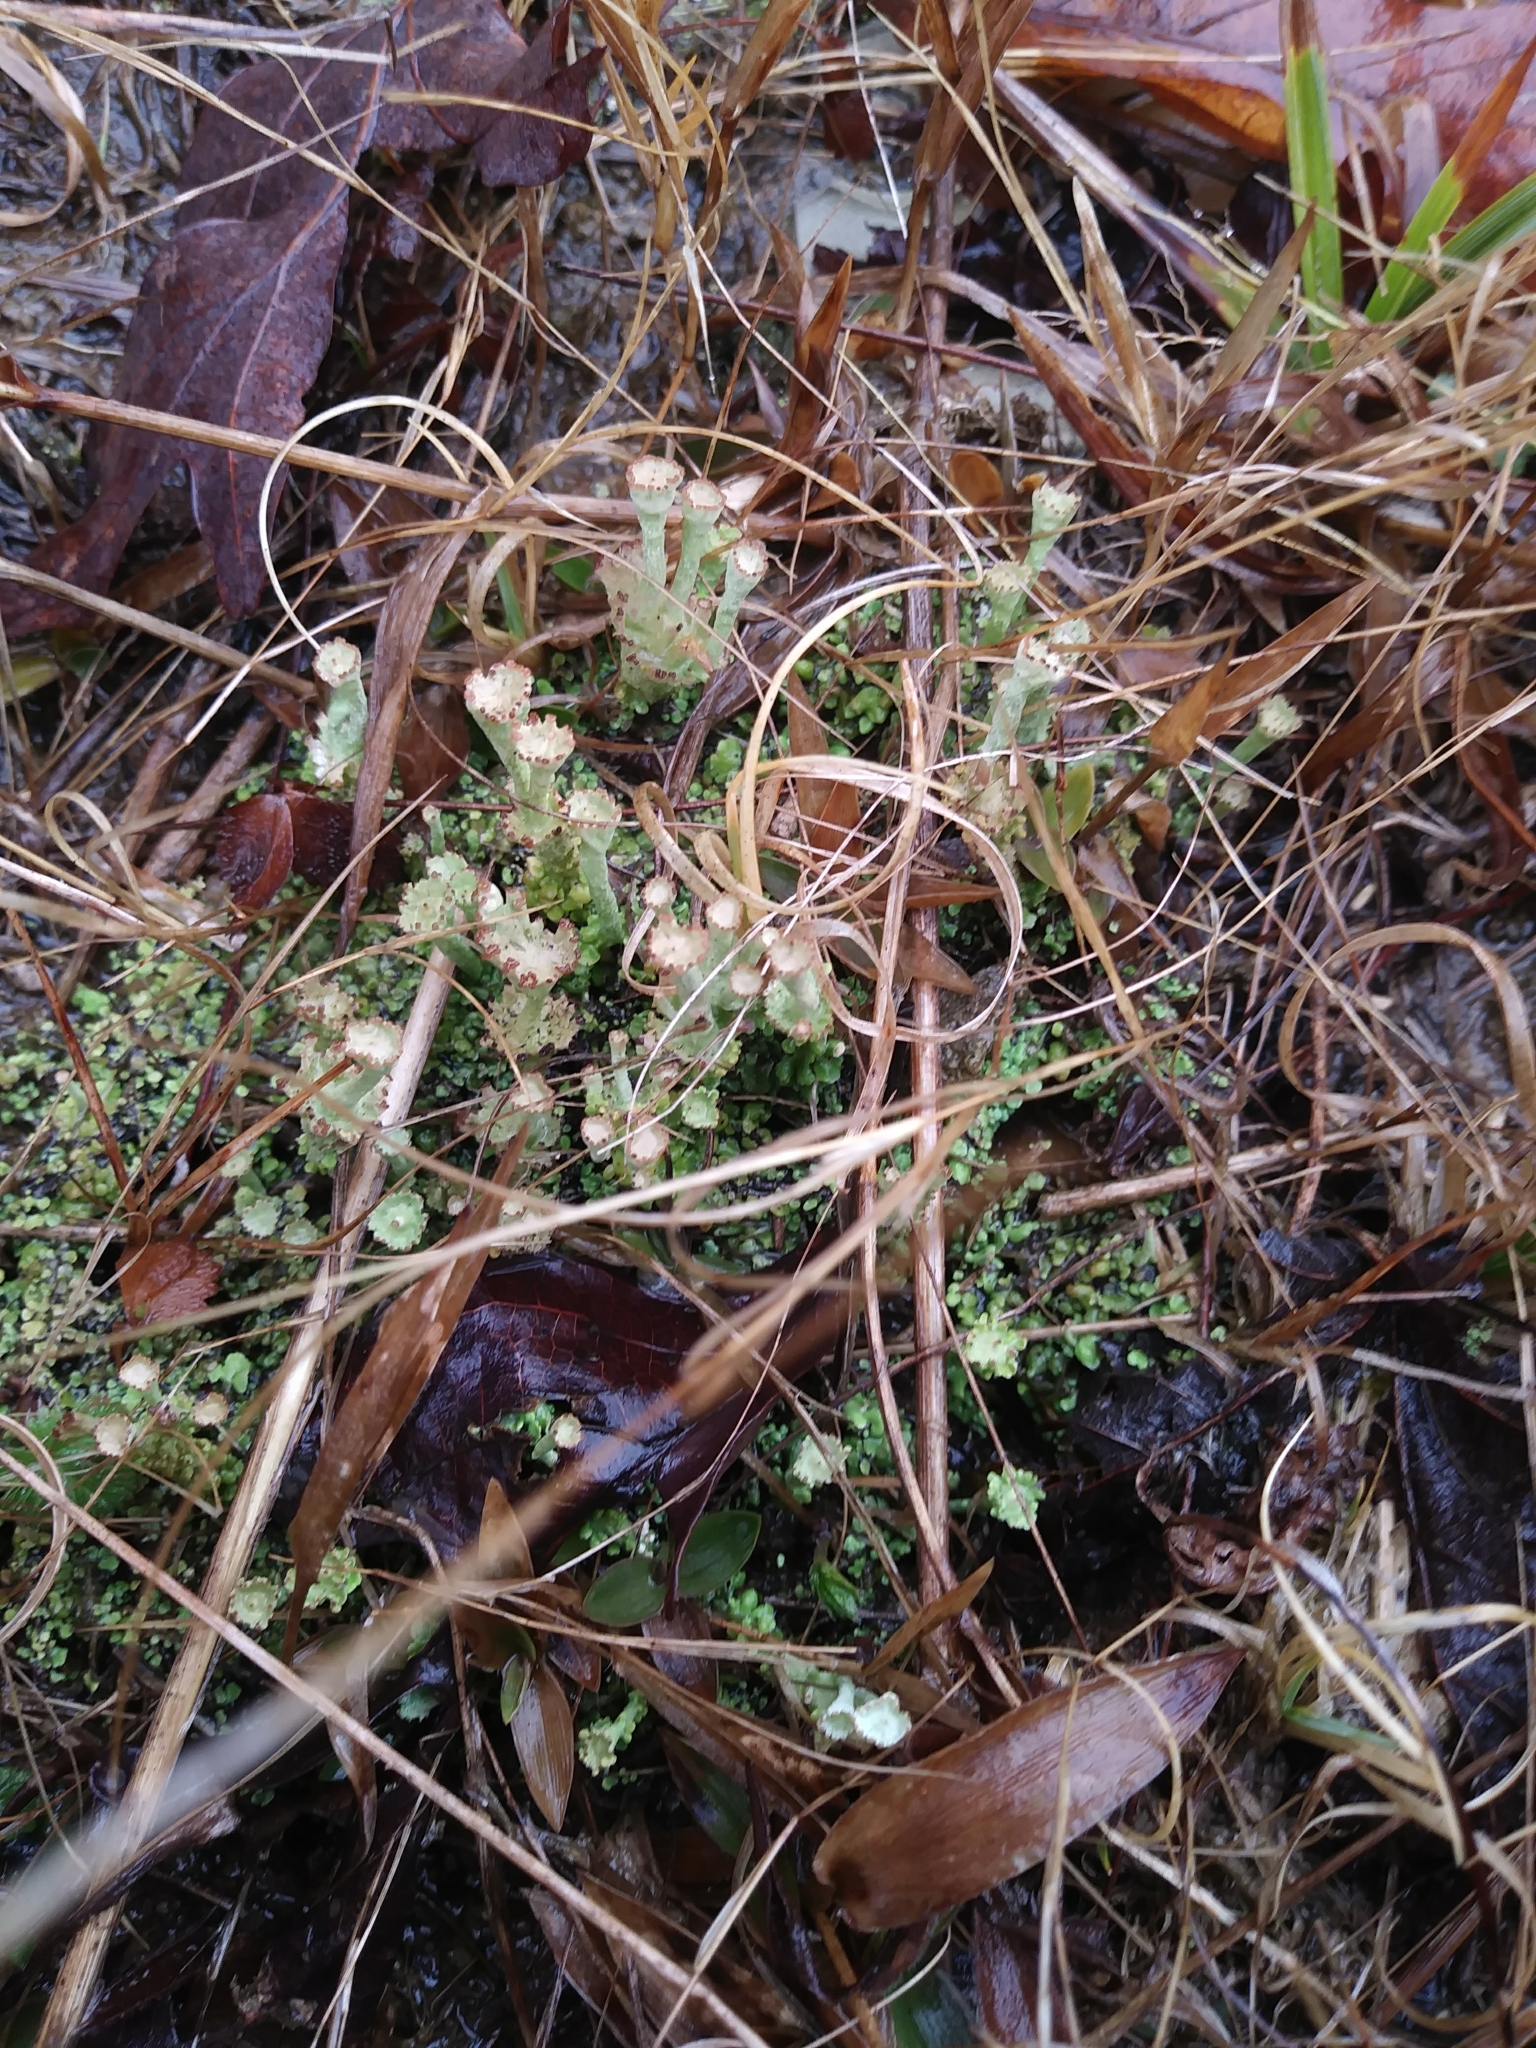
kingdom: Fungi
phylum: Ascomycota
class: Lecanoromycetes
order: Lecanorales
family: Cladoniaceae
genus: Cladonia
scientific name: Cladonia rappii
